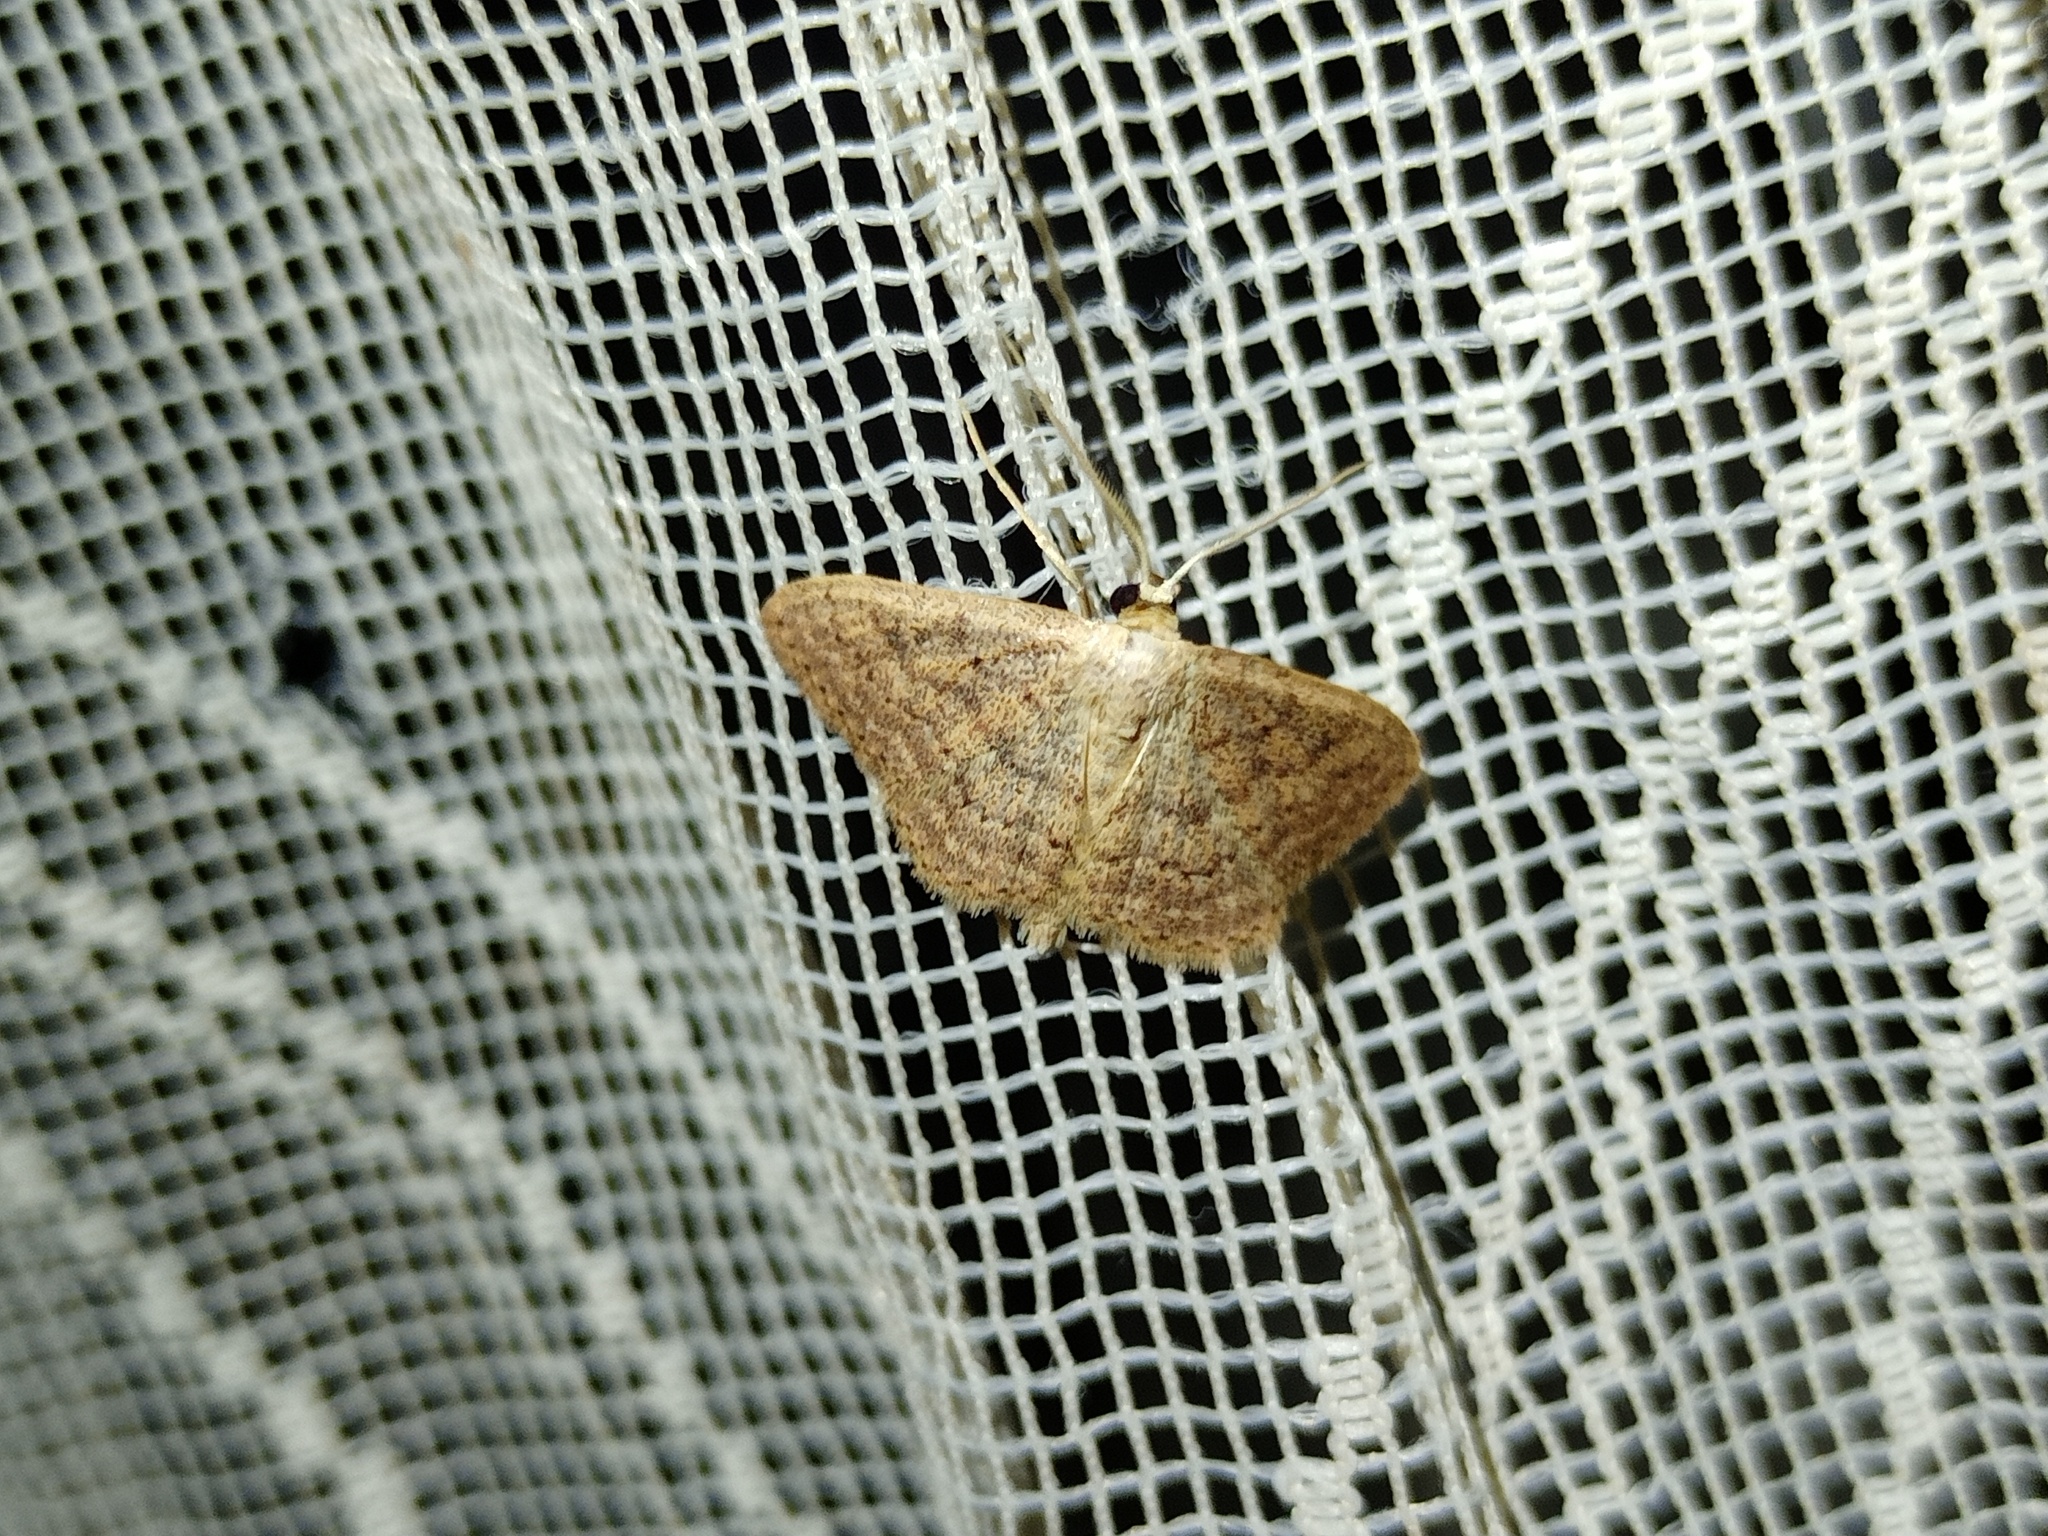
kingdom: Animalia
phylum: Arthropoda
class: Insecta
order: Lepidoptera
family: Geometridae
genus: Scopula
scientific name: Scopula guancharia
